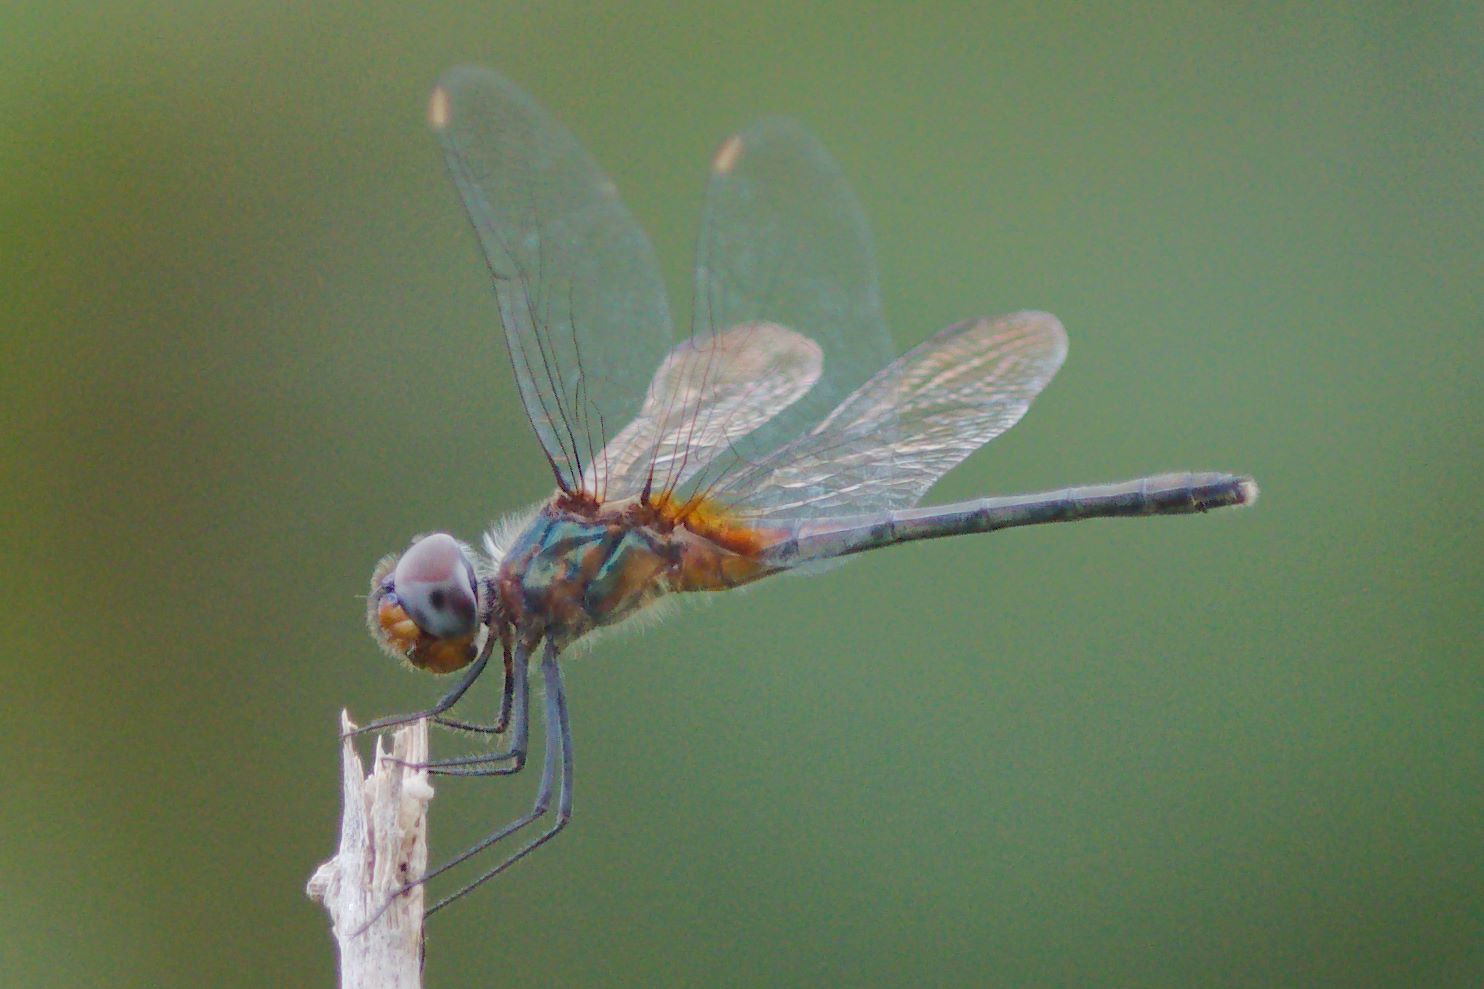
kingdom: Animalia
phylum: Arthropoda
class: Insecta
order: Odonata
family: Libellulidae
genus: Idiataphe
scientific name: Idiataphe cubensis
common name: Metallic pennant
